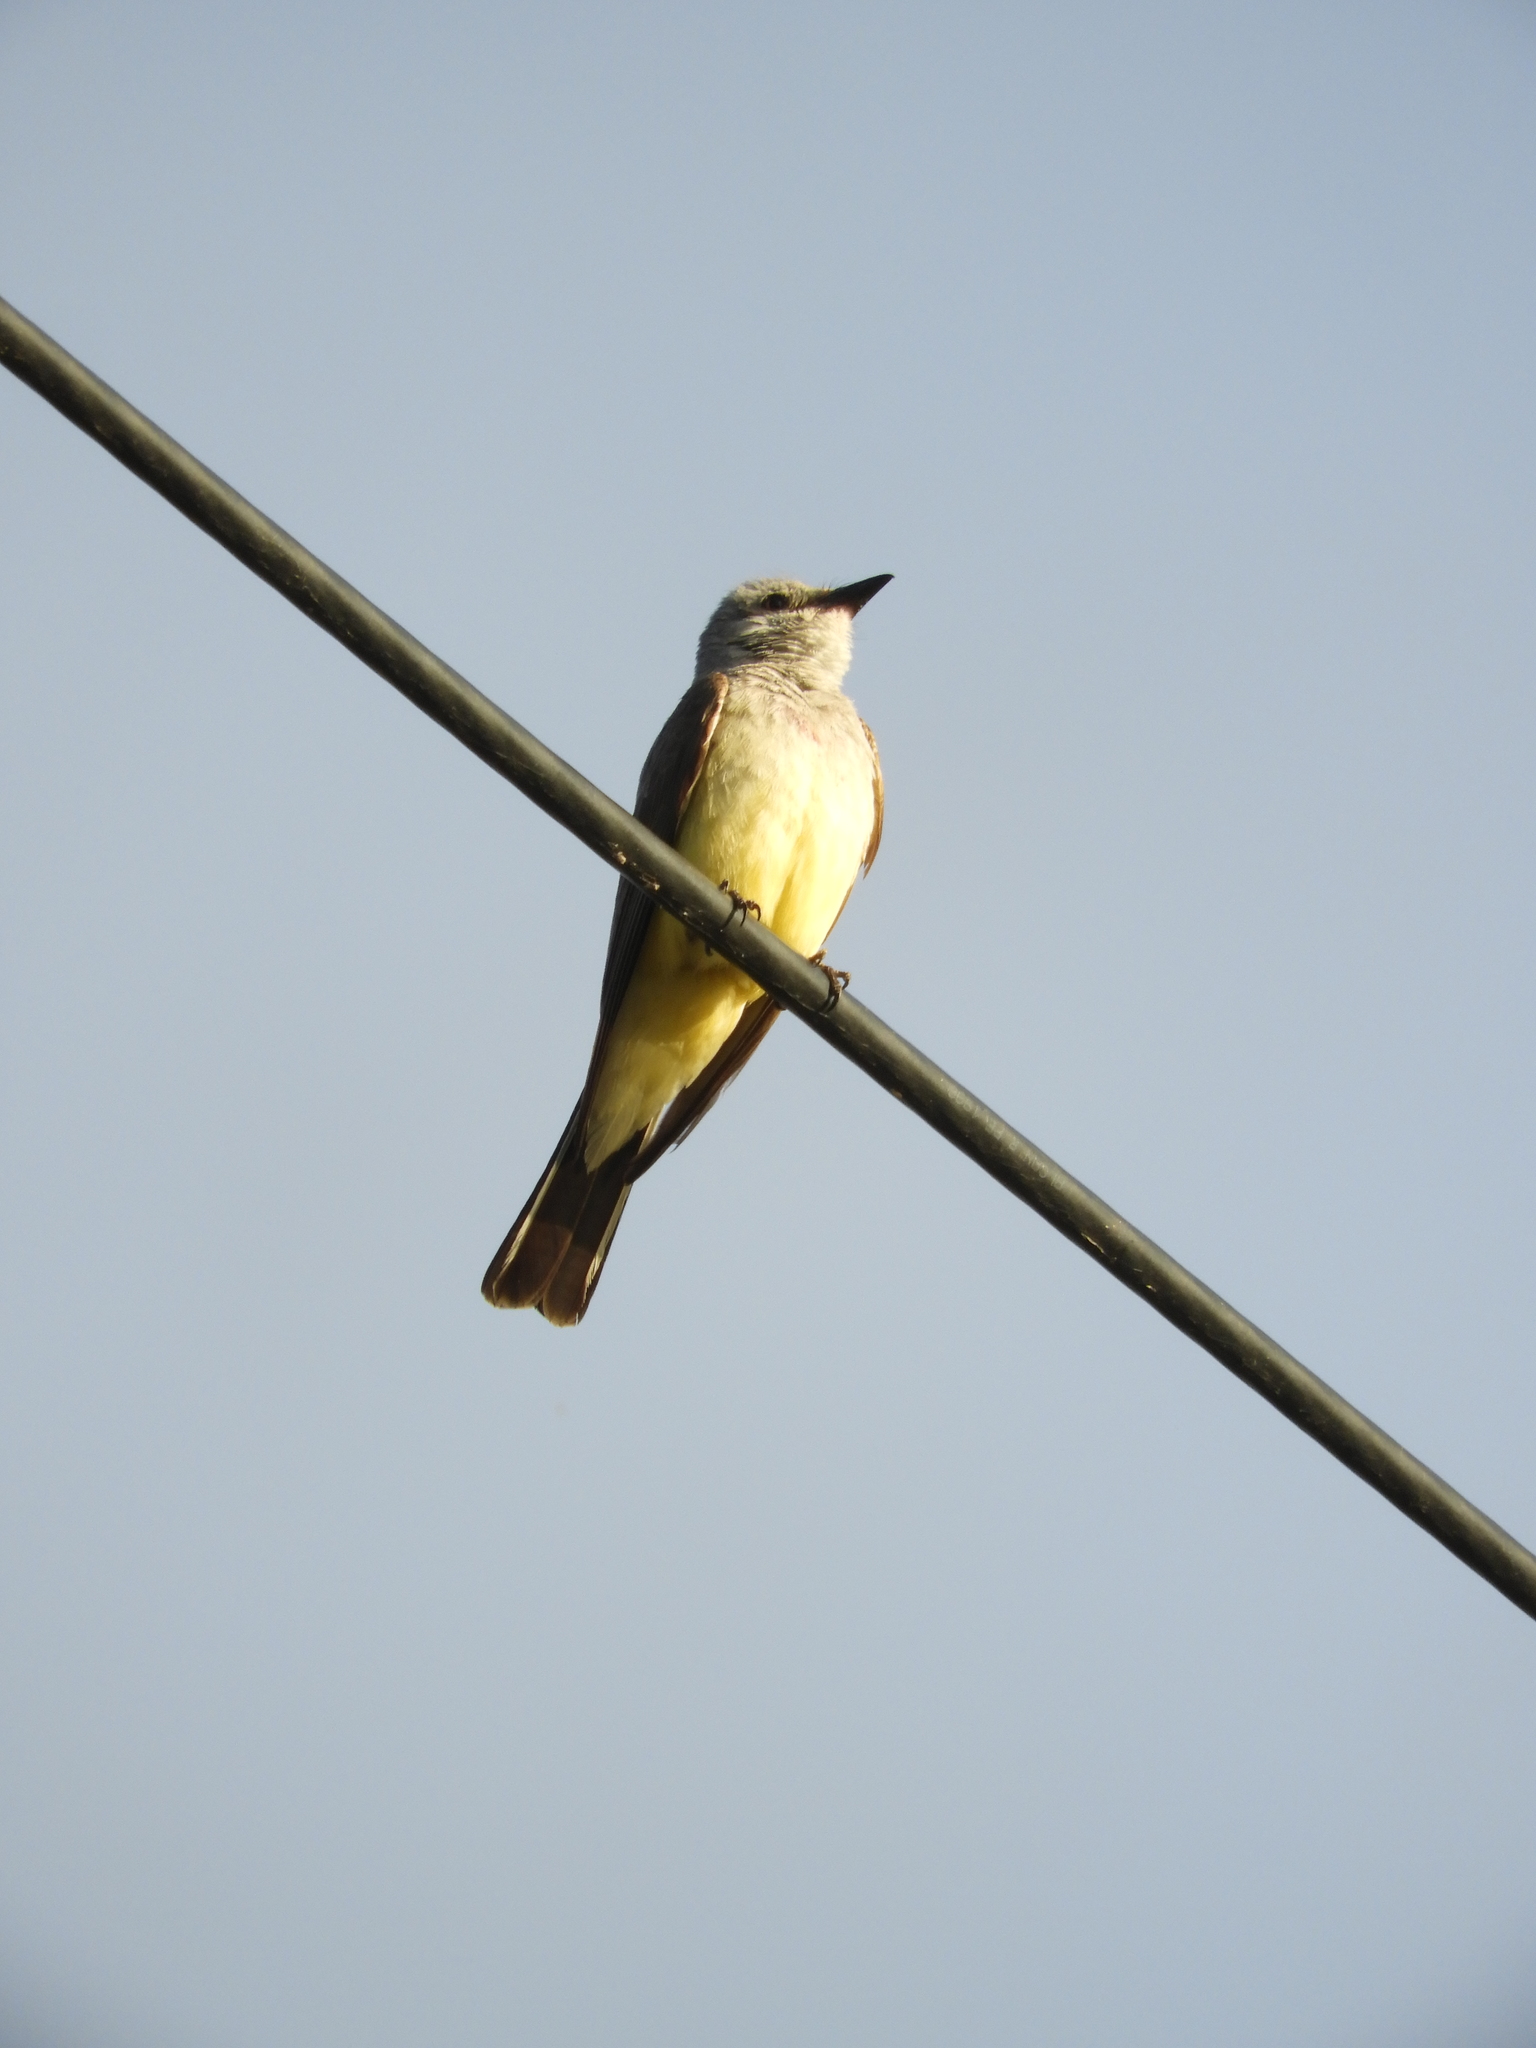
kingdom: Animalia
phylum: Chordata
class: Aves
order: Passeriformes
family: Tyrannidae
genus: Tyrannus
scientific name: Tyrannus verticalis
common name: Western kingbird
